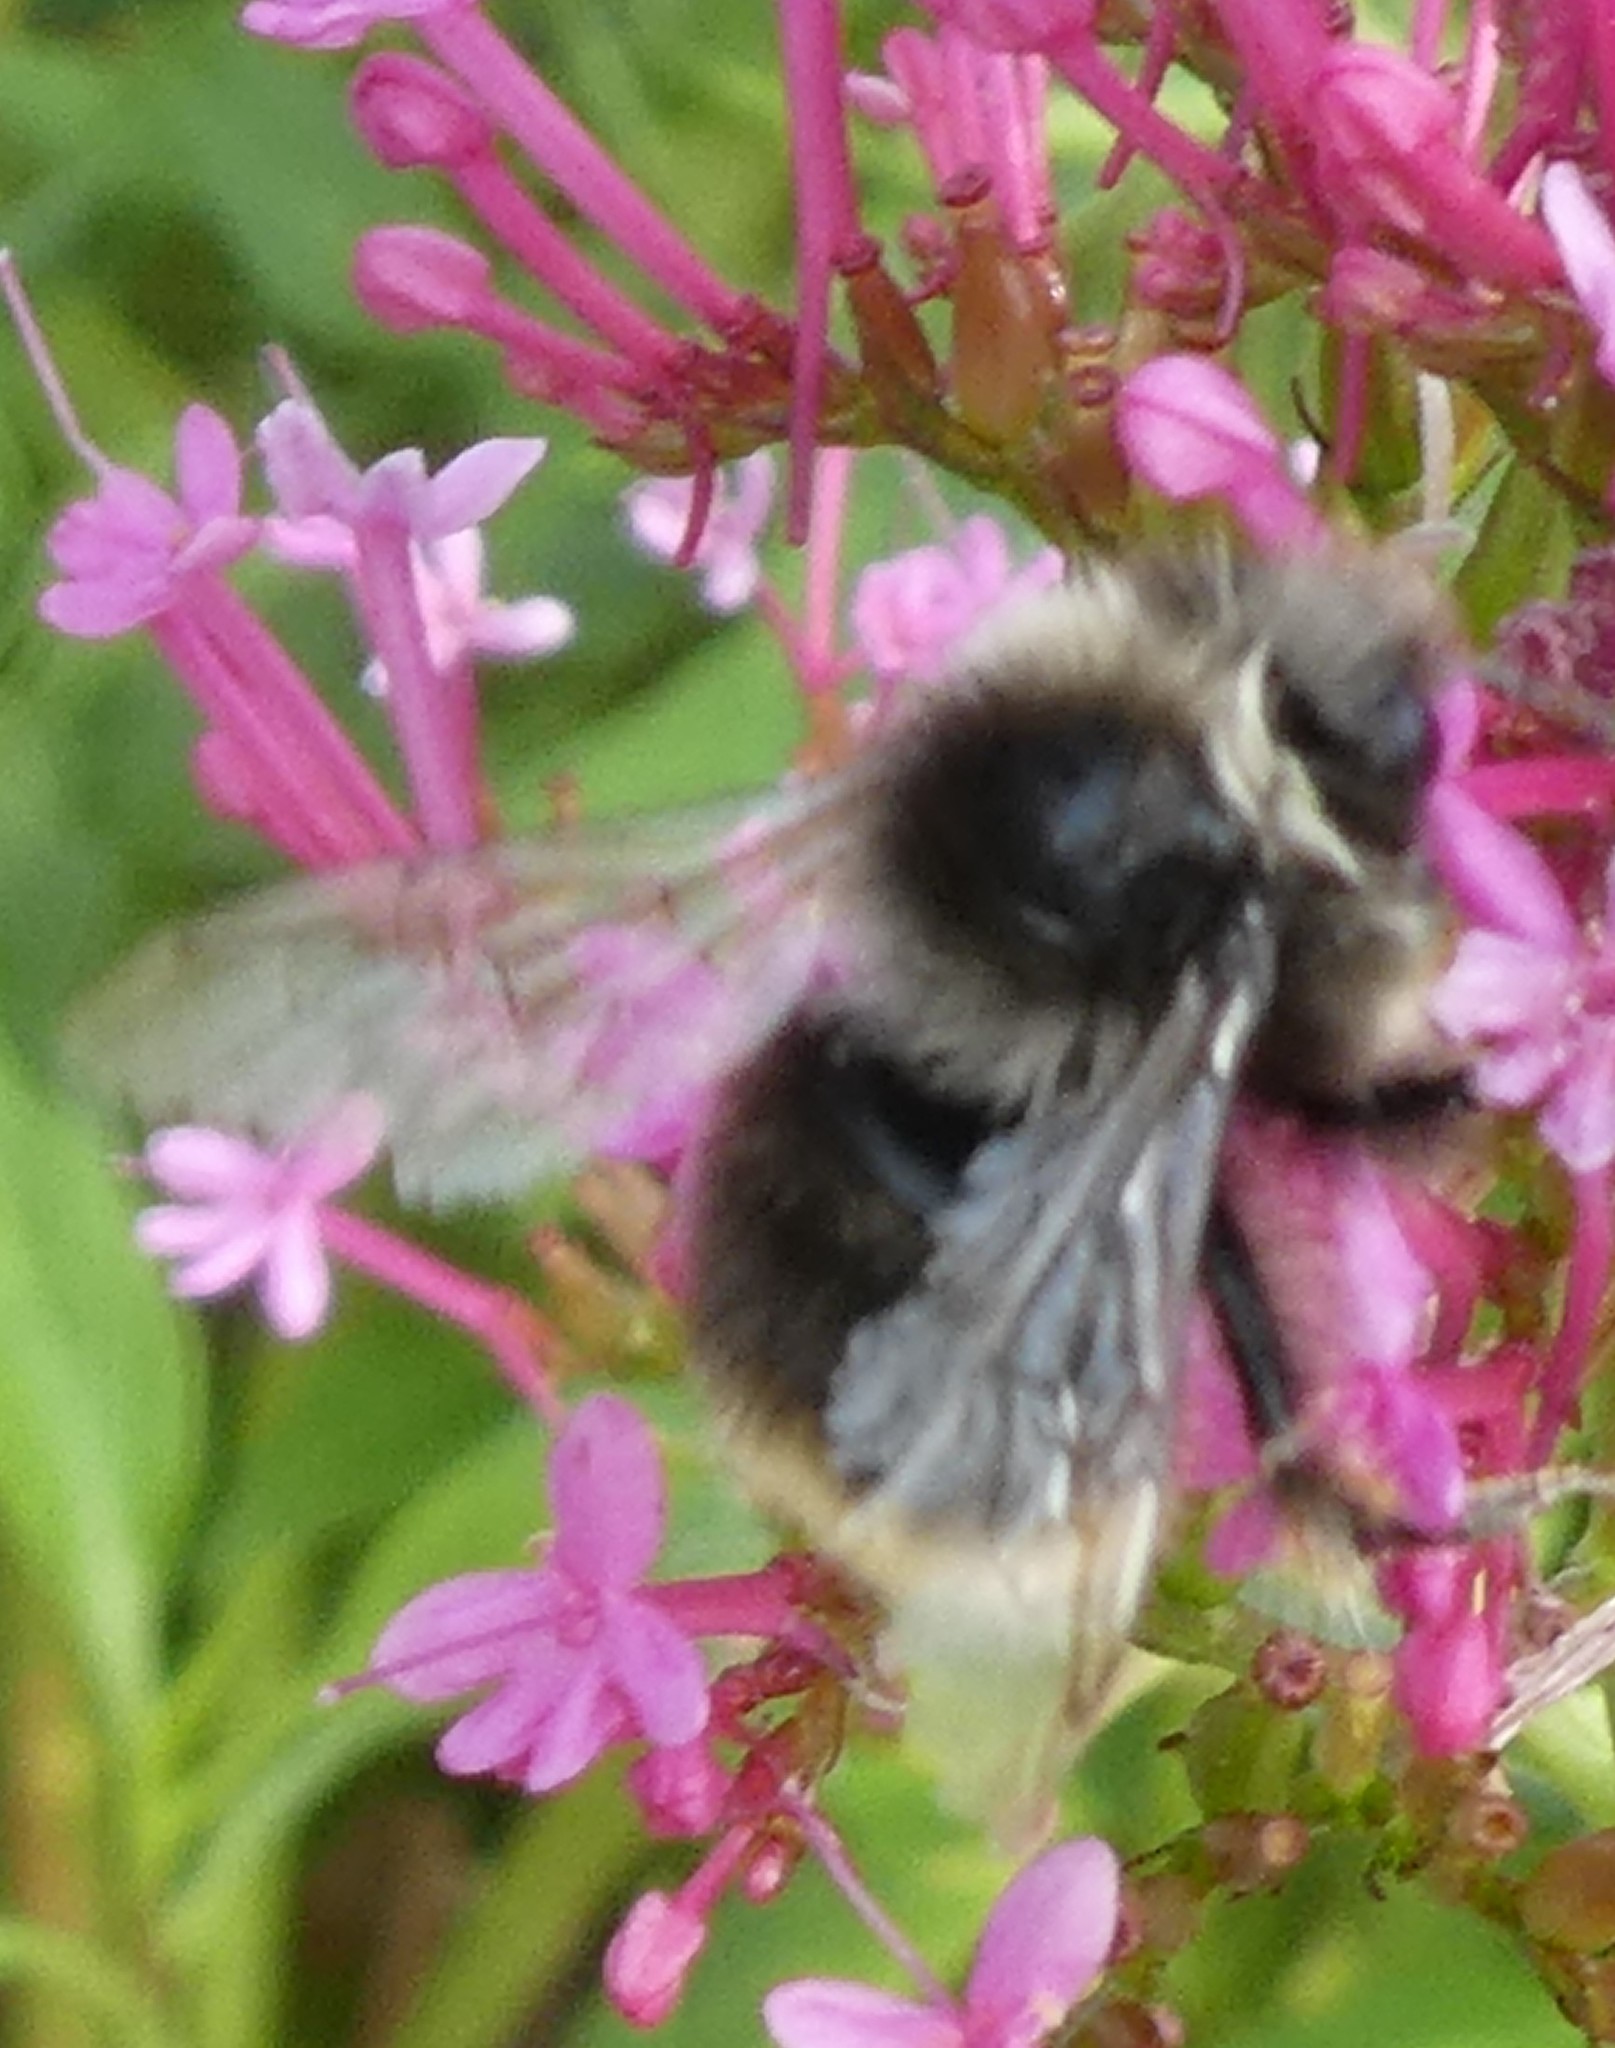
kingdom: Animalia
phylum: Arthropoda
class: Insecta
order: Hymenoptera
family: Apidae
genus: Bombus
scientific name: Bombus lapidarius
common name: Large red-tailed humble-bee
